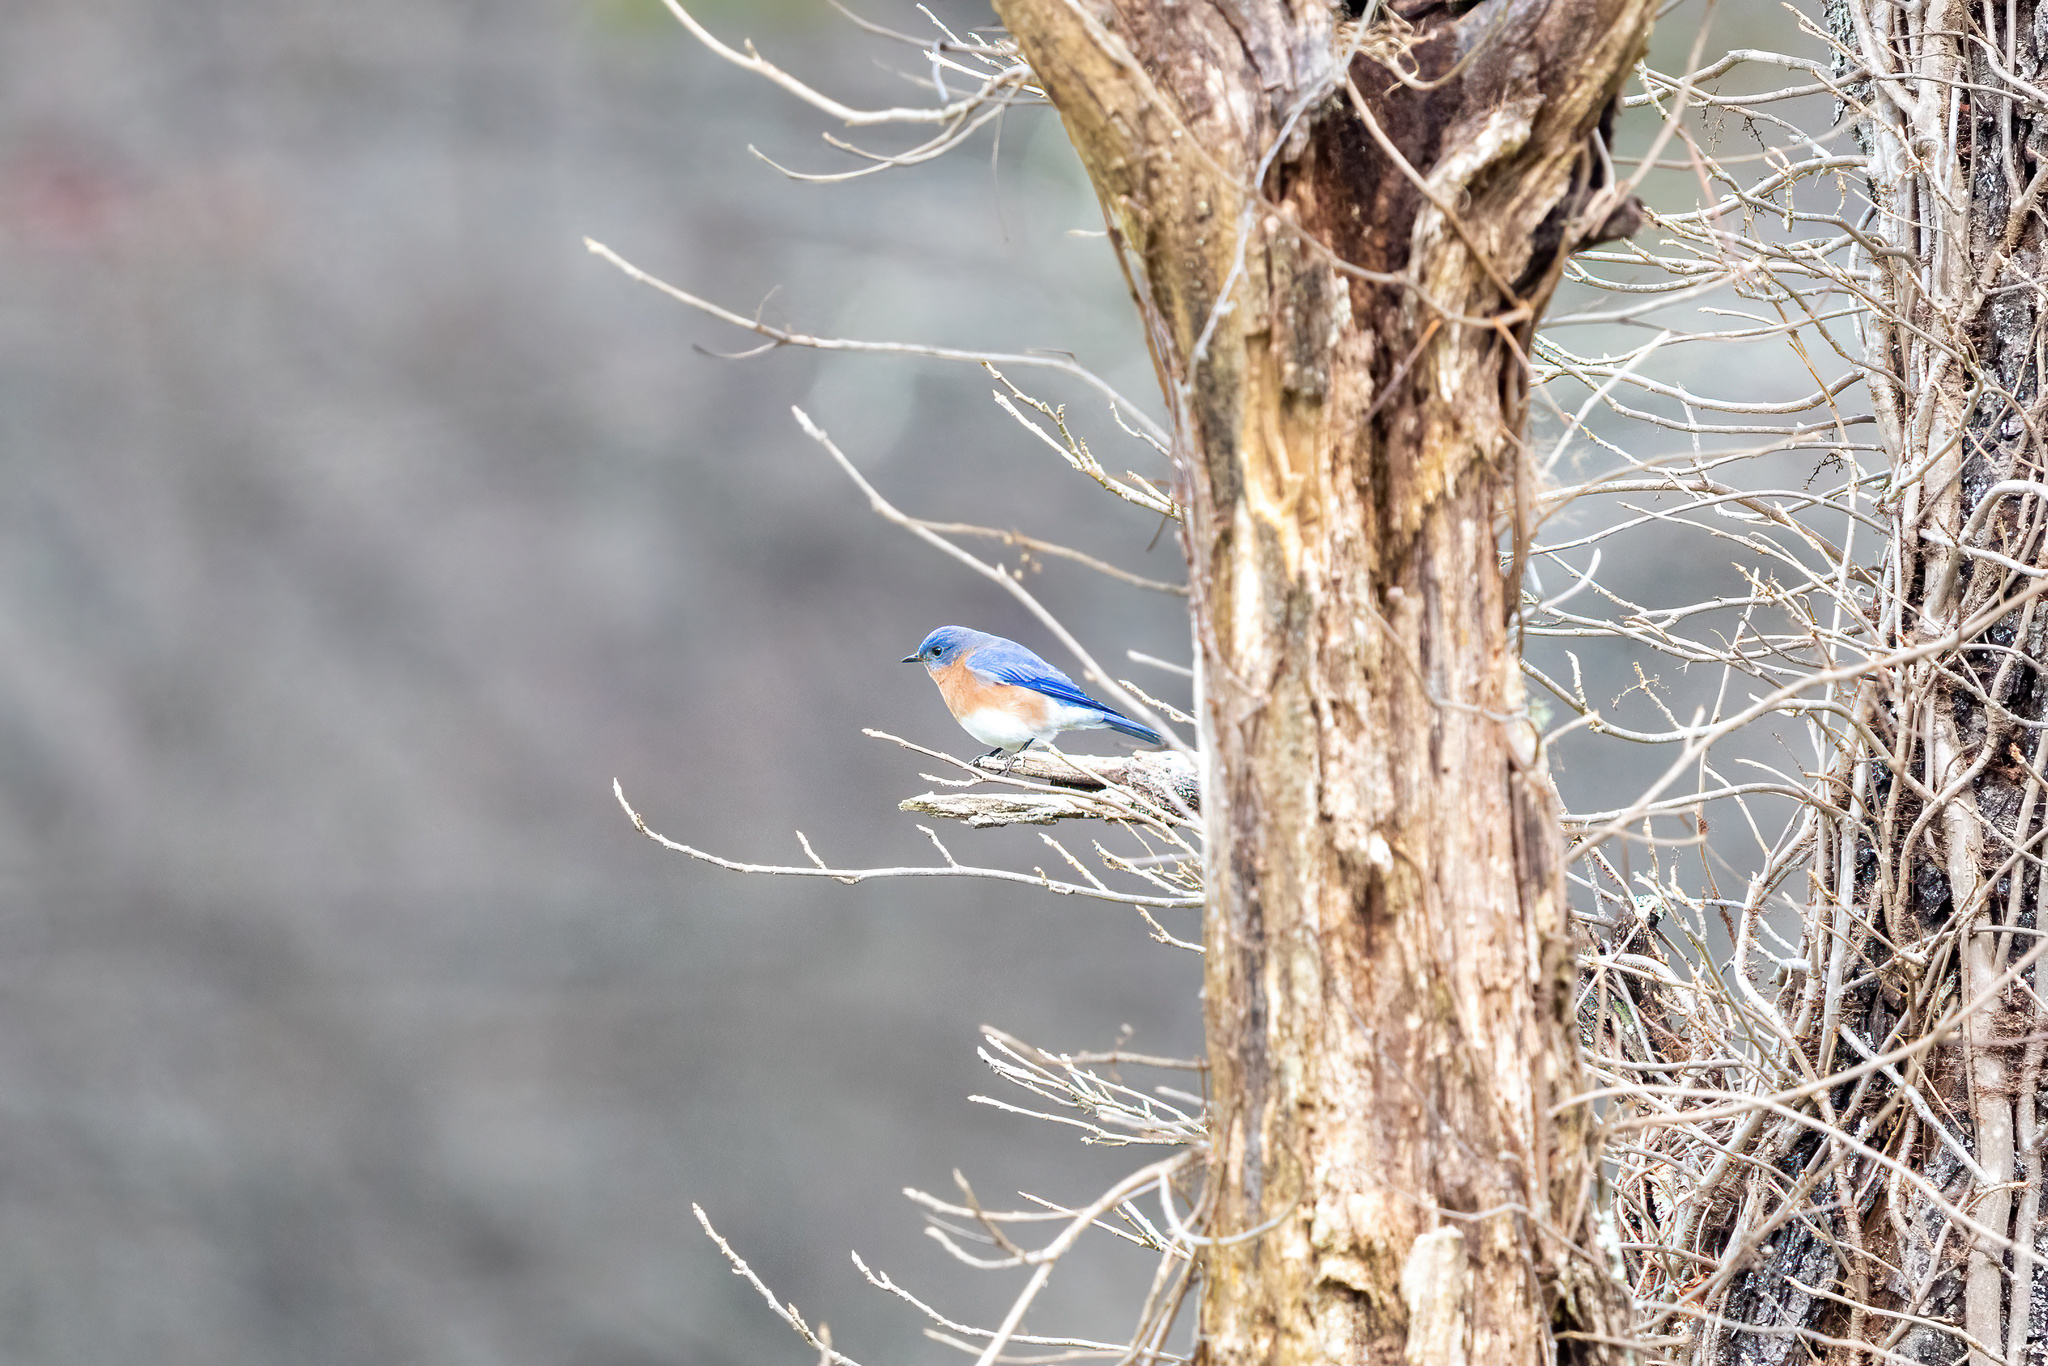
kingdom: Animalia
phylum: Chordata
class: Aves
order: Passeriformes
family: Turdidae
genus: Sialia
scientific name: Sialia sialis
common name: Eastern bluebird
